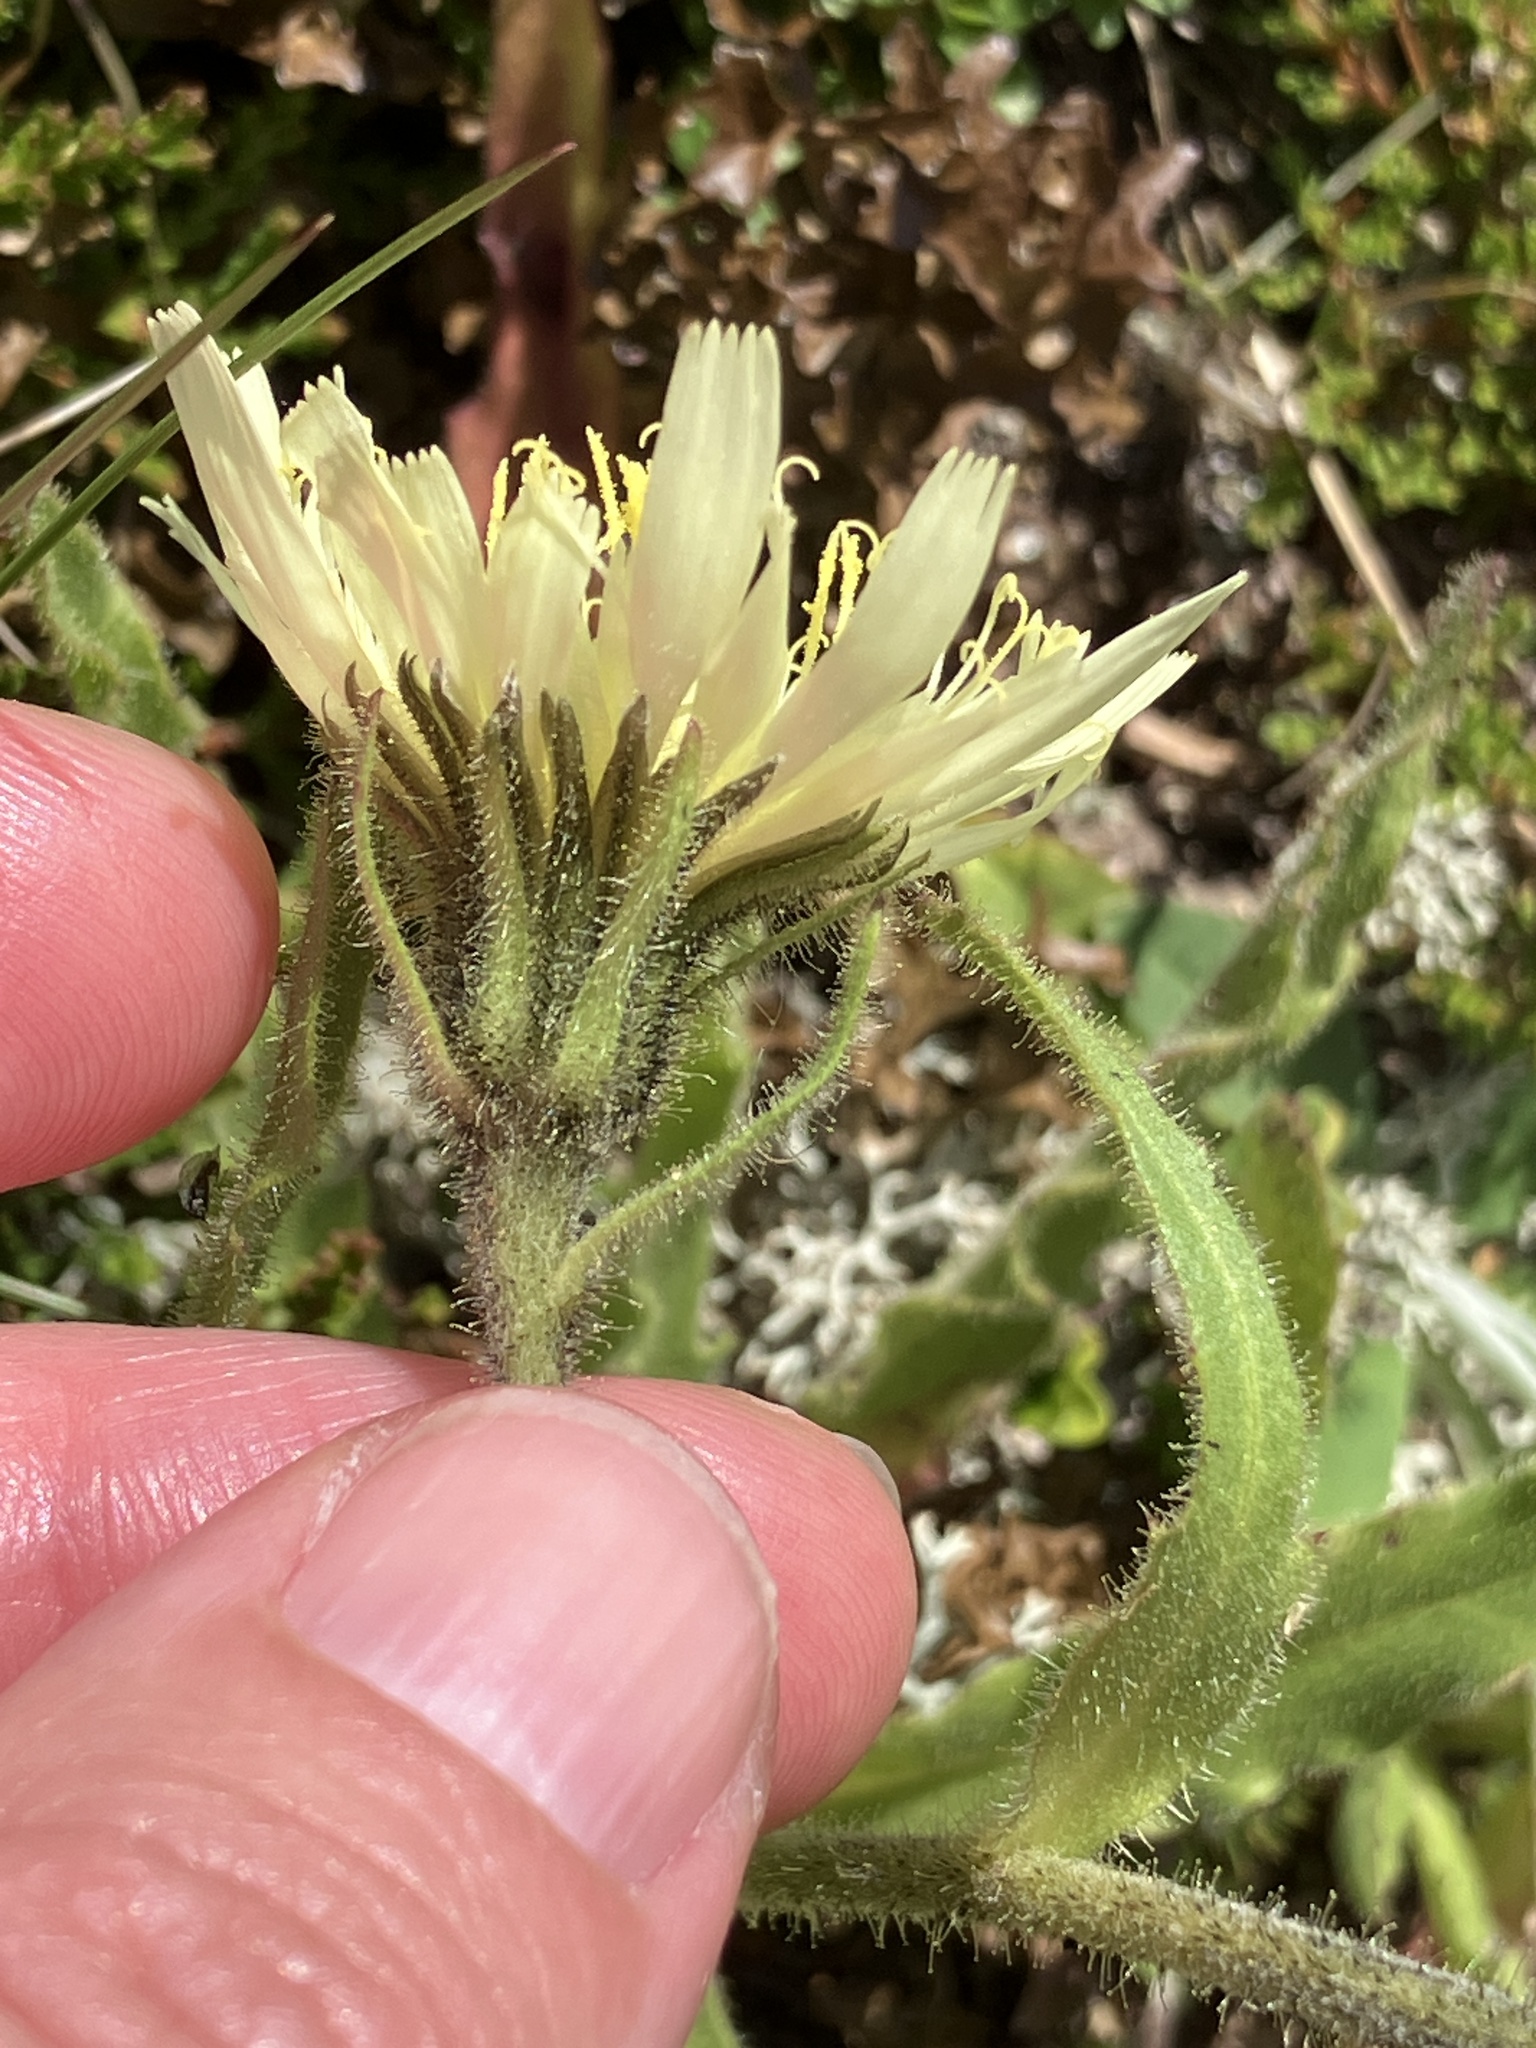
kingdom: Plantae
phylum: Tracheophyta
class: Magnoliopsida
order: Asterales
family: Asteraceae
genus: Schlagintweitia
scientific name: Schlagintweitia intybacea
